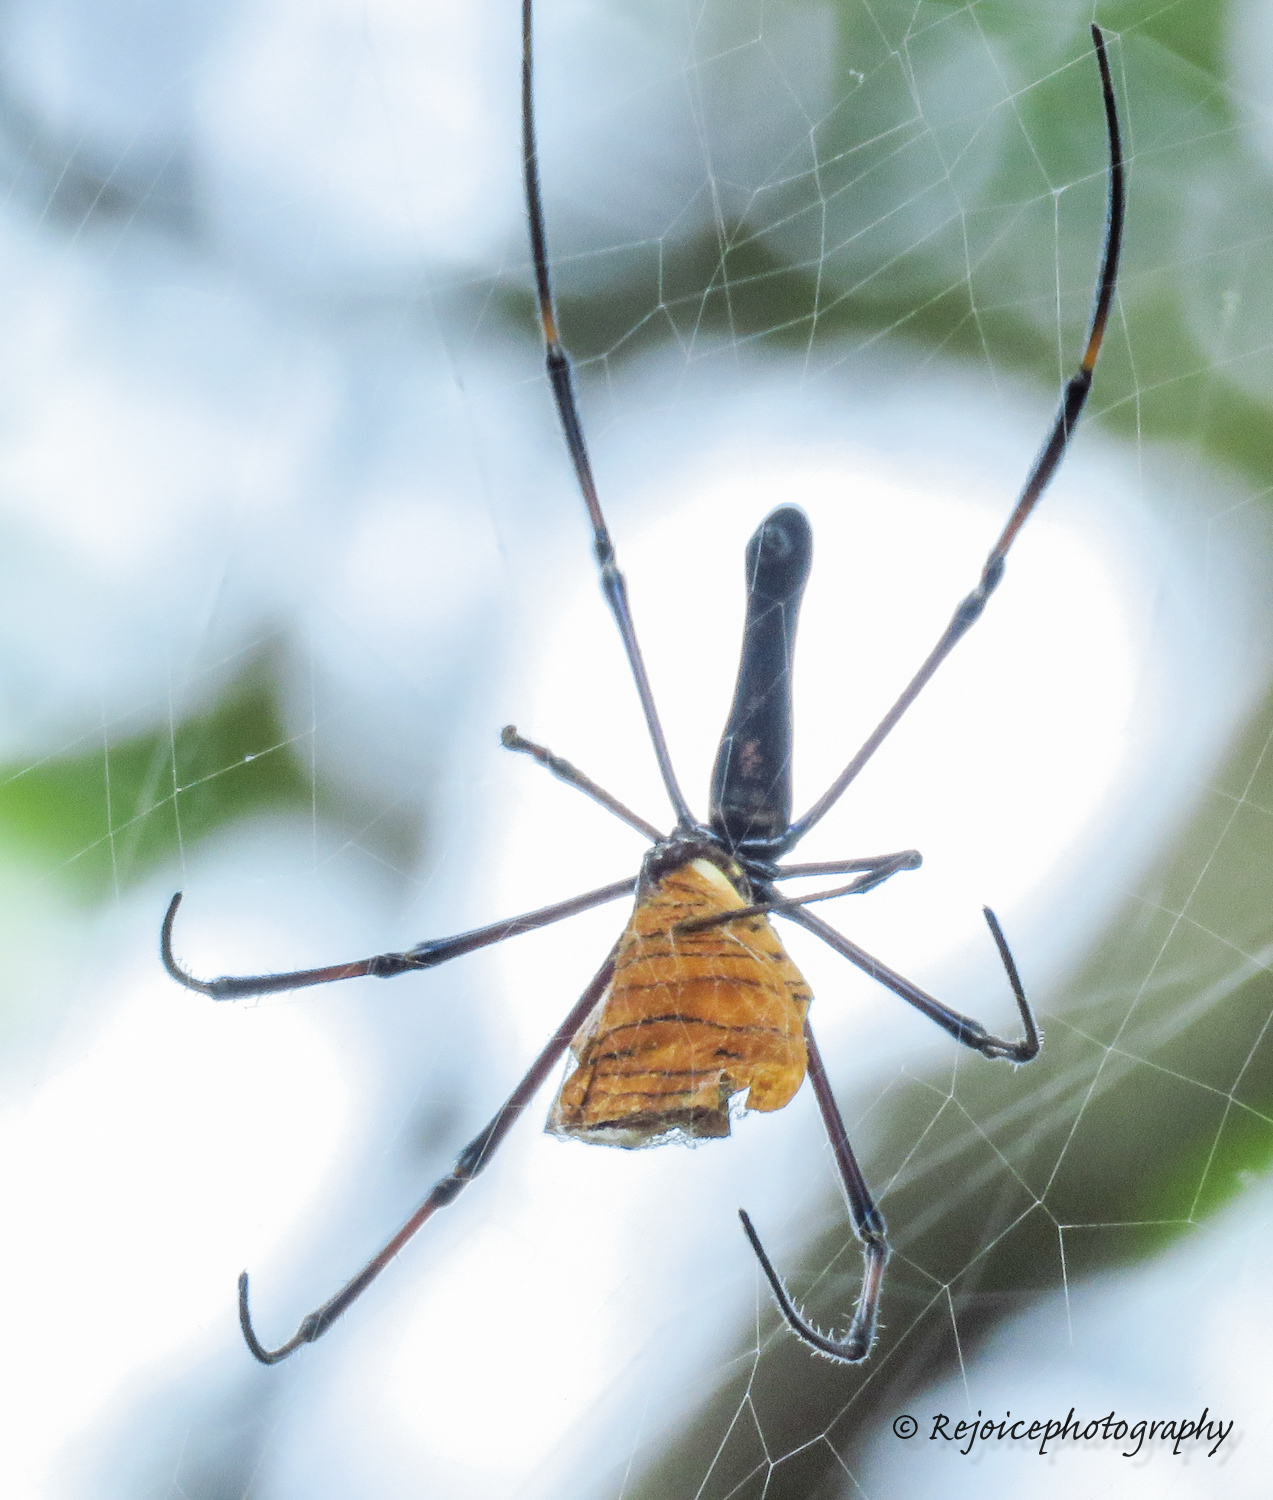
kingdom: Animalia
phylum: Arthropoda
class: Arachnida
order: Araneae
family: Araneidae
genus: Nephila
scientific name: Nephila kuhli
